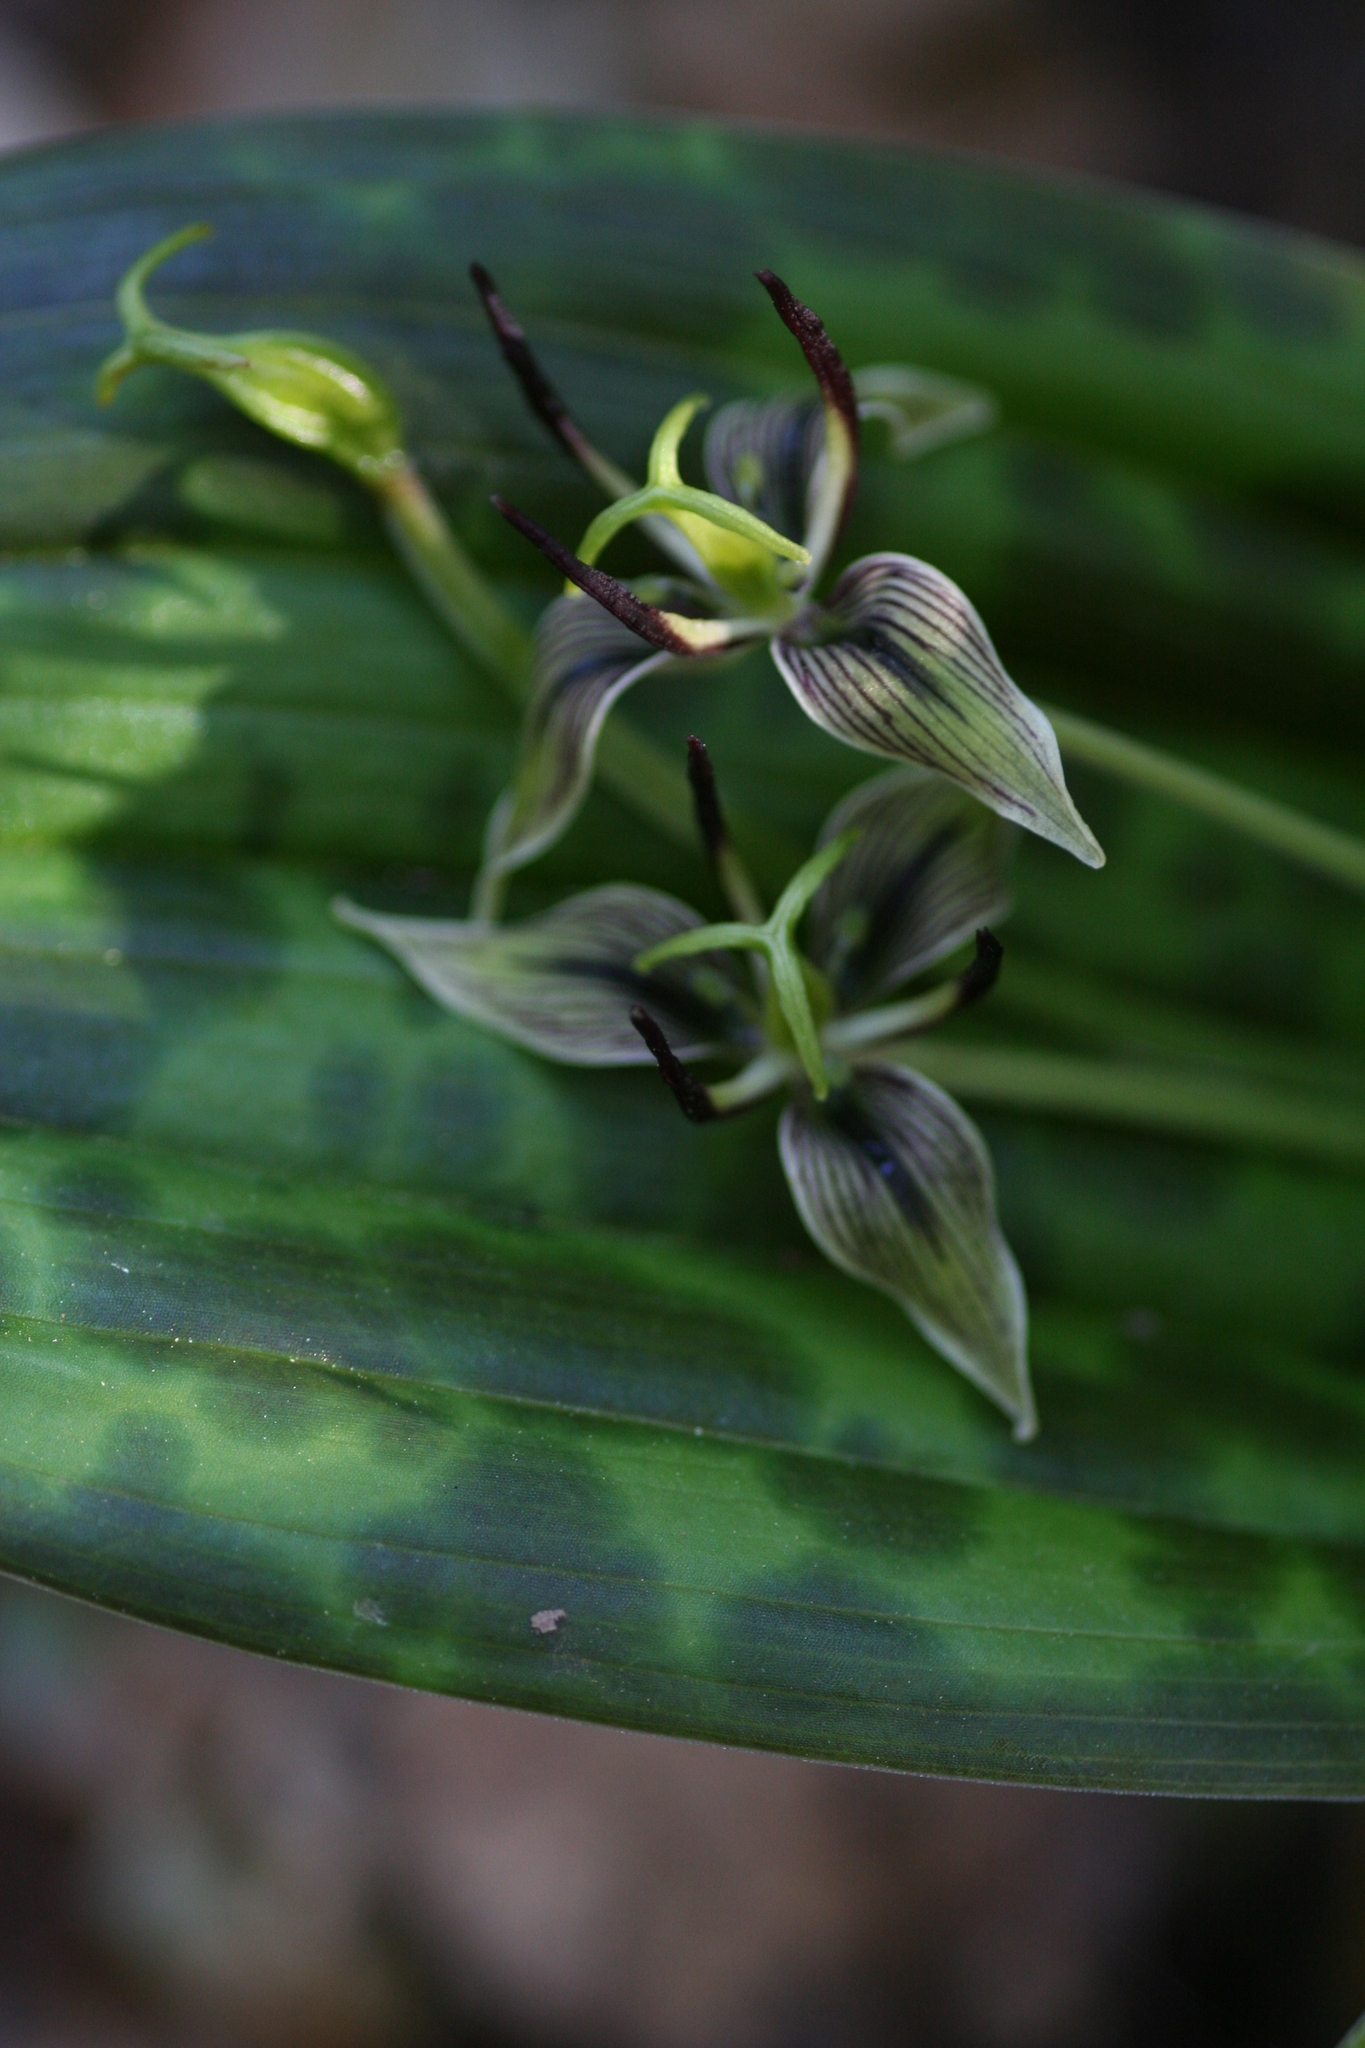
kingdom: Plantae
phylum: Tracheophyta
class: Liliopsida
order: Liliales
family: Liliaceae
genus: Scoliopus
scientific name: Scoliopus bigelovii
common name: Foetid adder's-tongue
